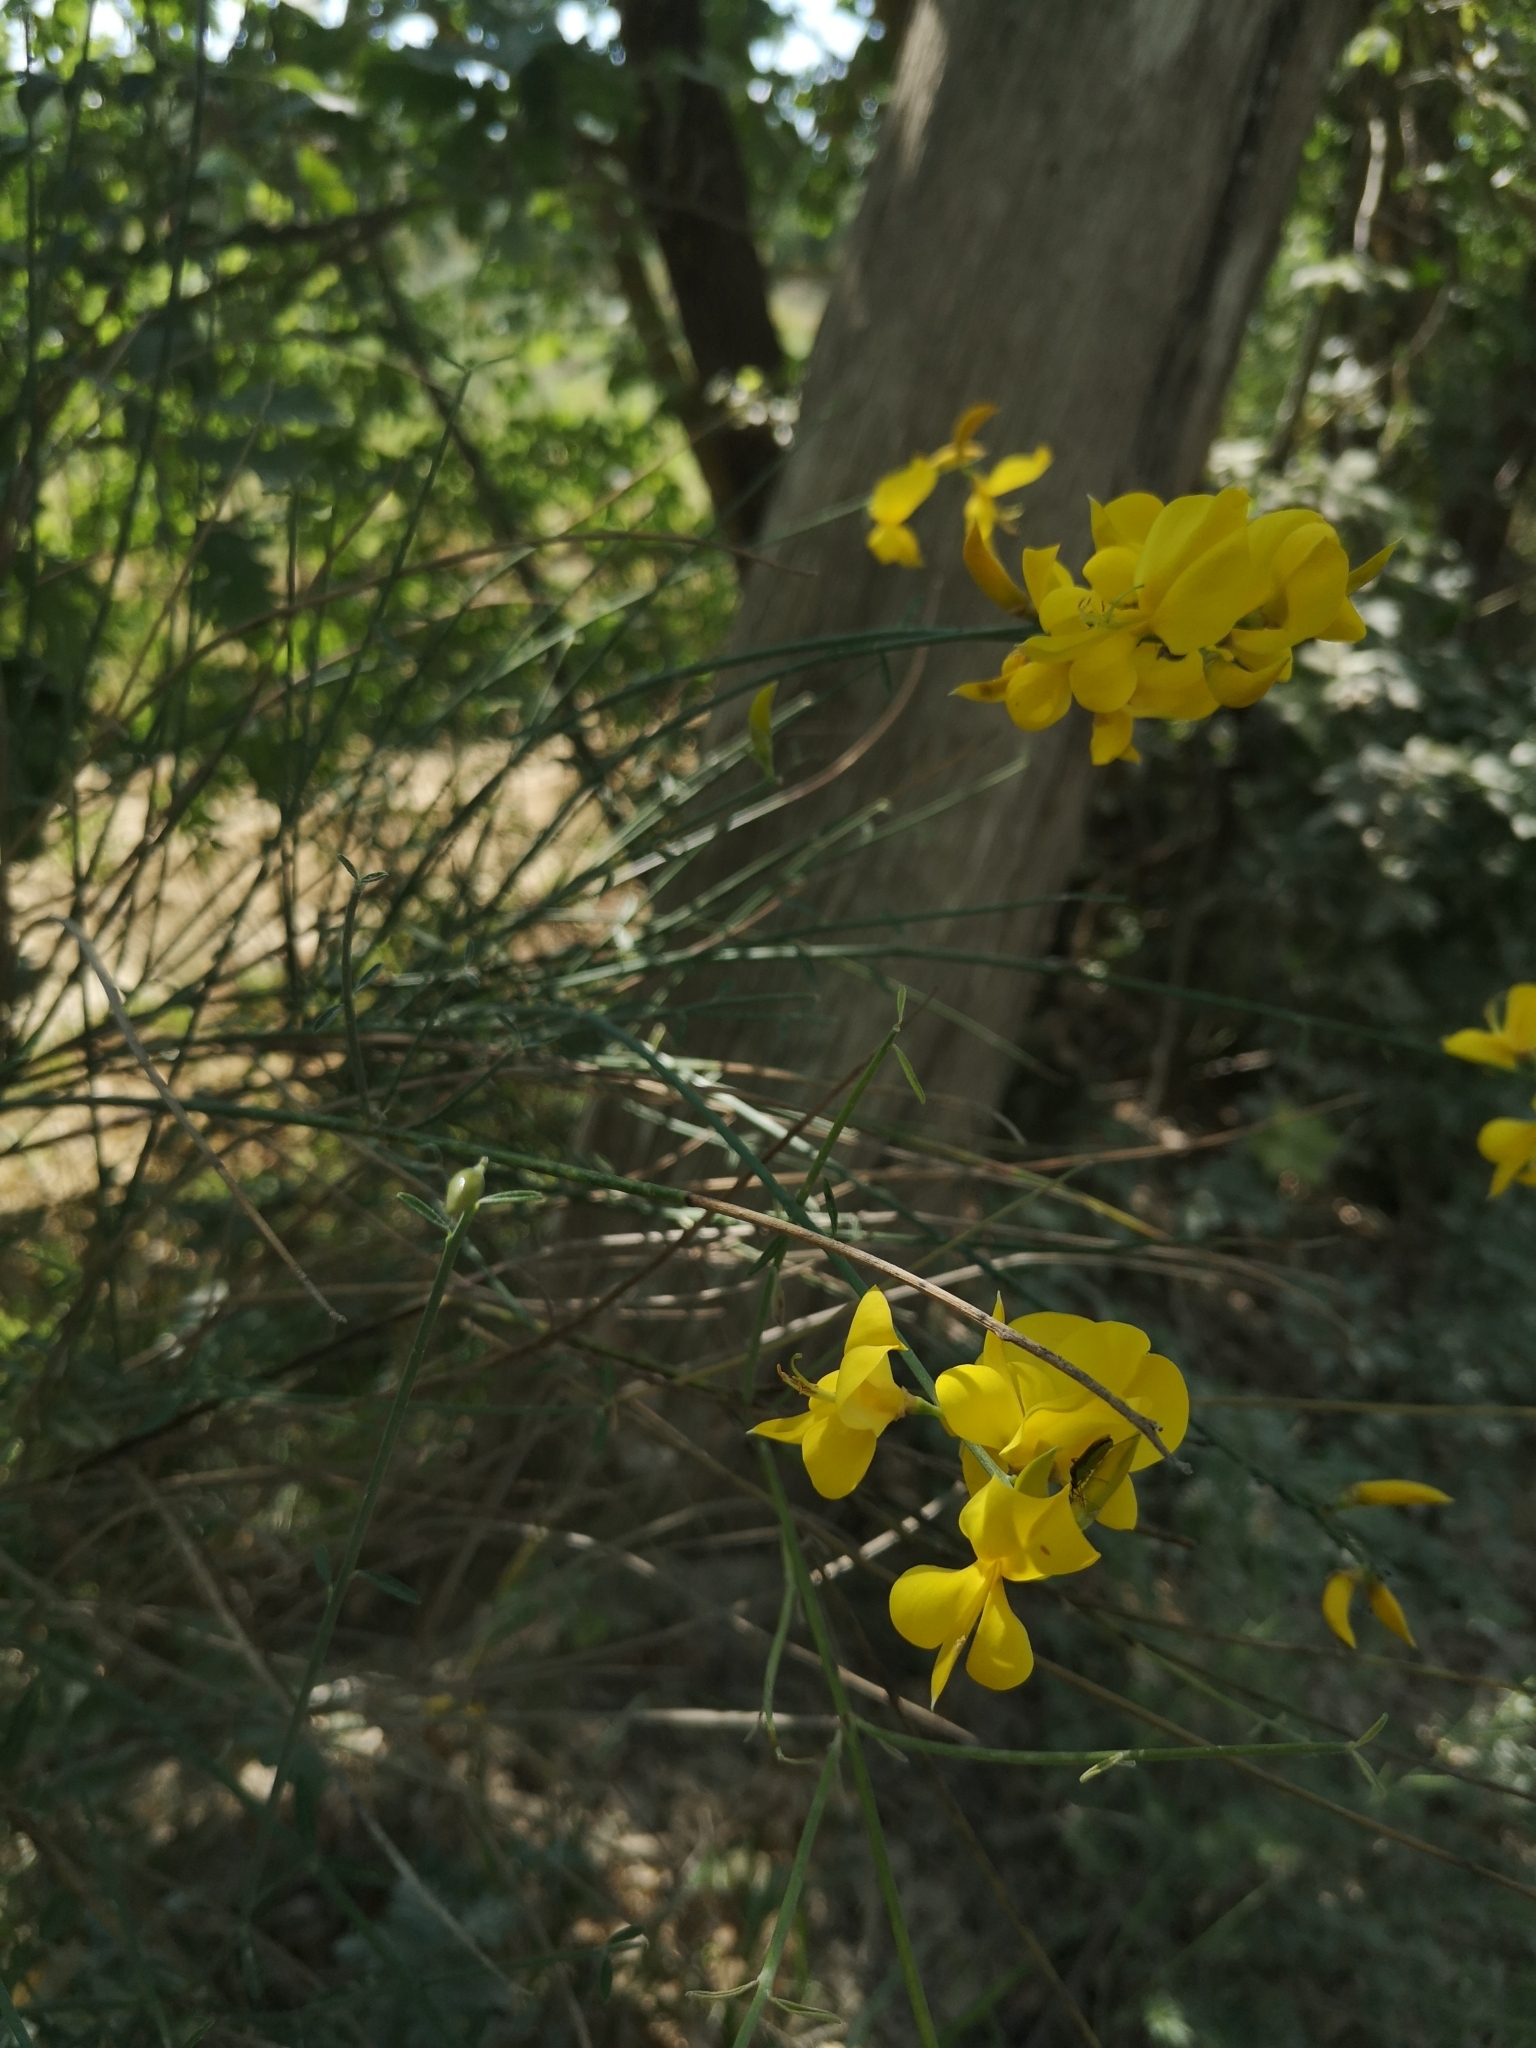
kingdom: Plantae
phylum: Tracheophyta
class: Magnoliopsida
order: Fabales
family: Fabaceae
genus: Spartium
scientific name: Spartium junceum
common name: Spanish broom
